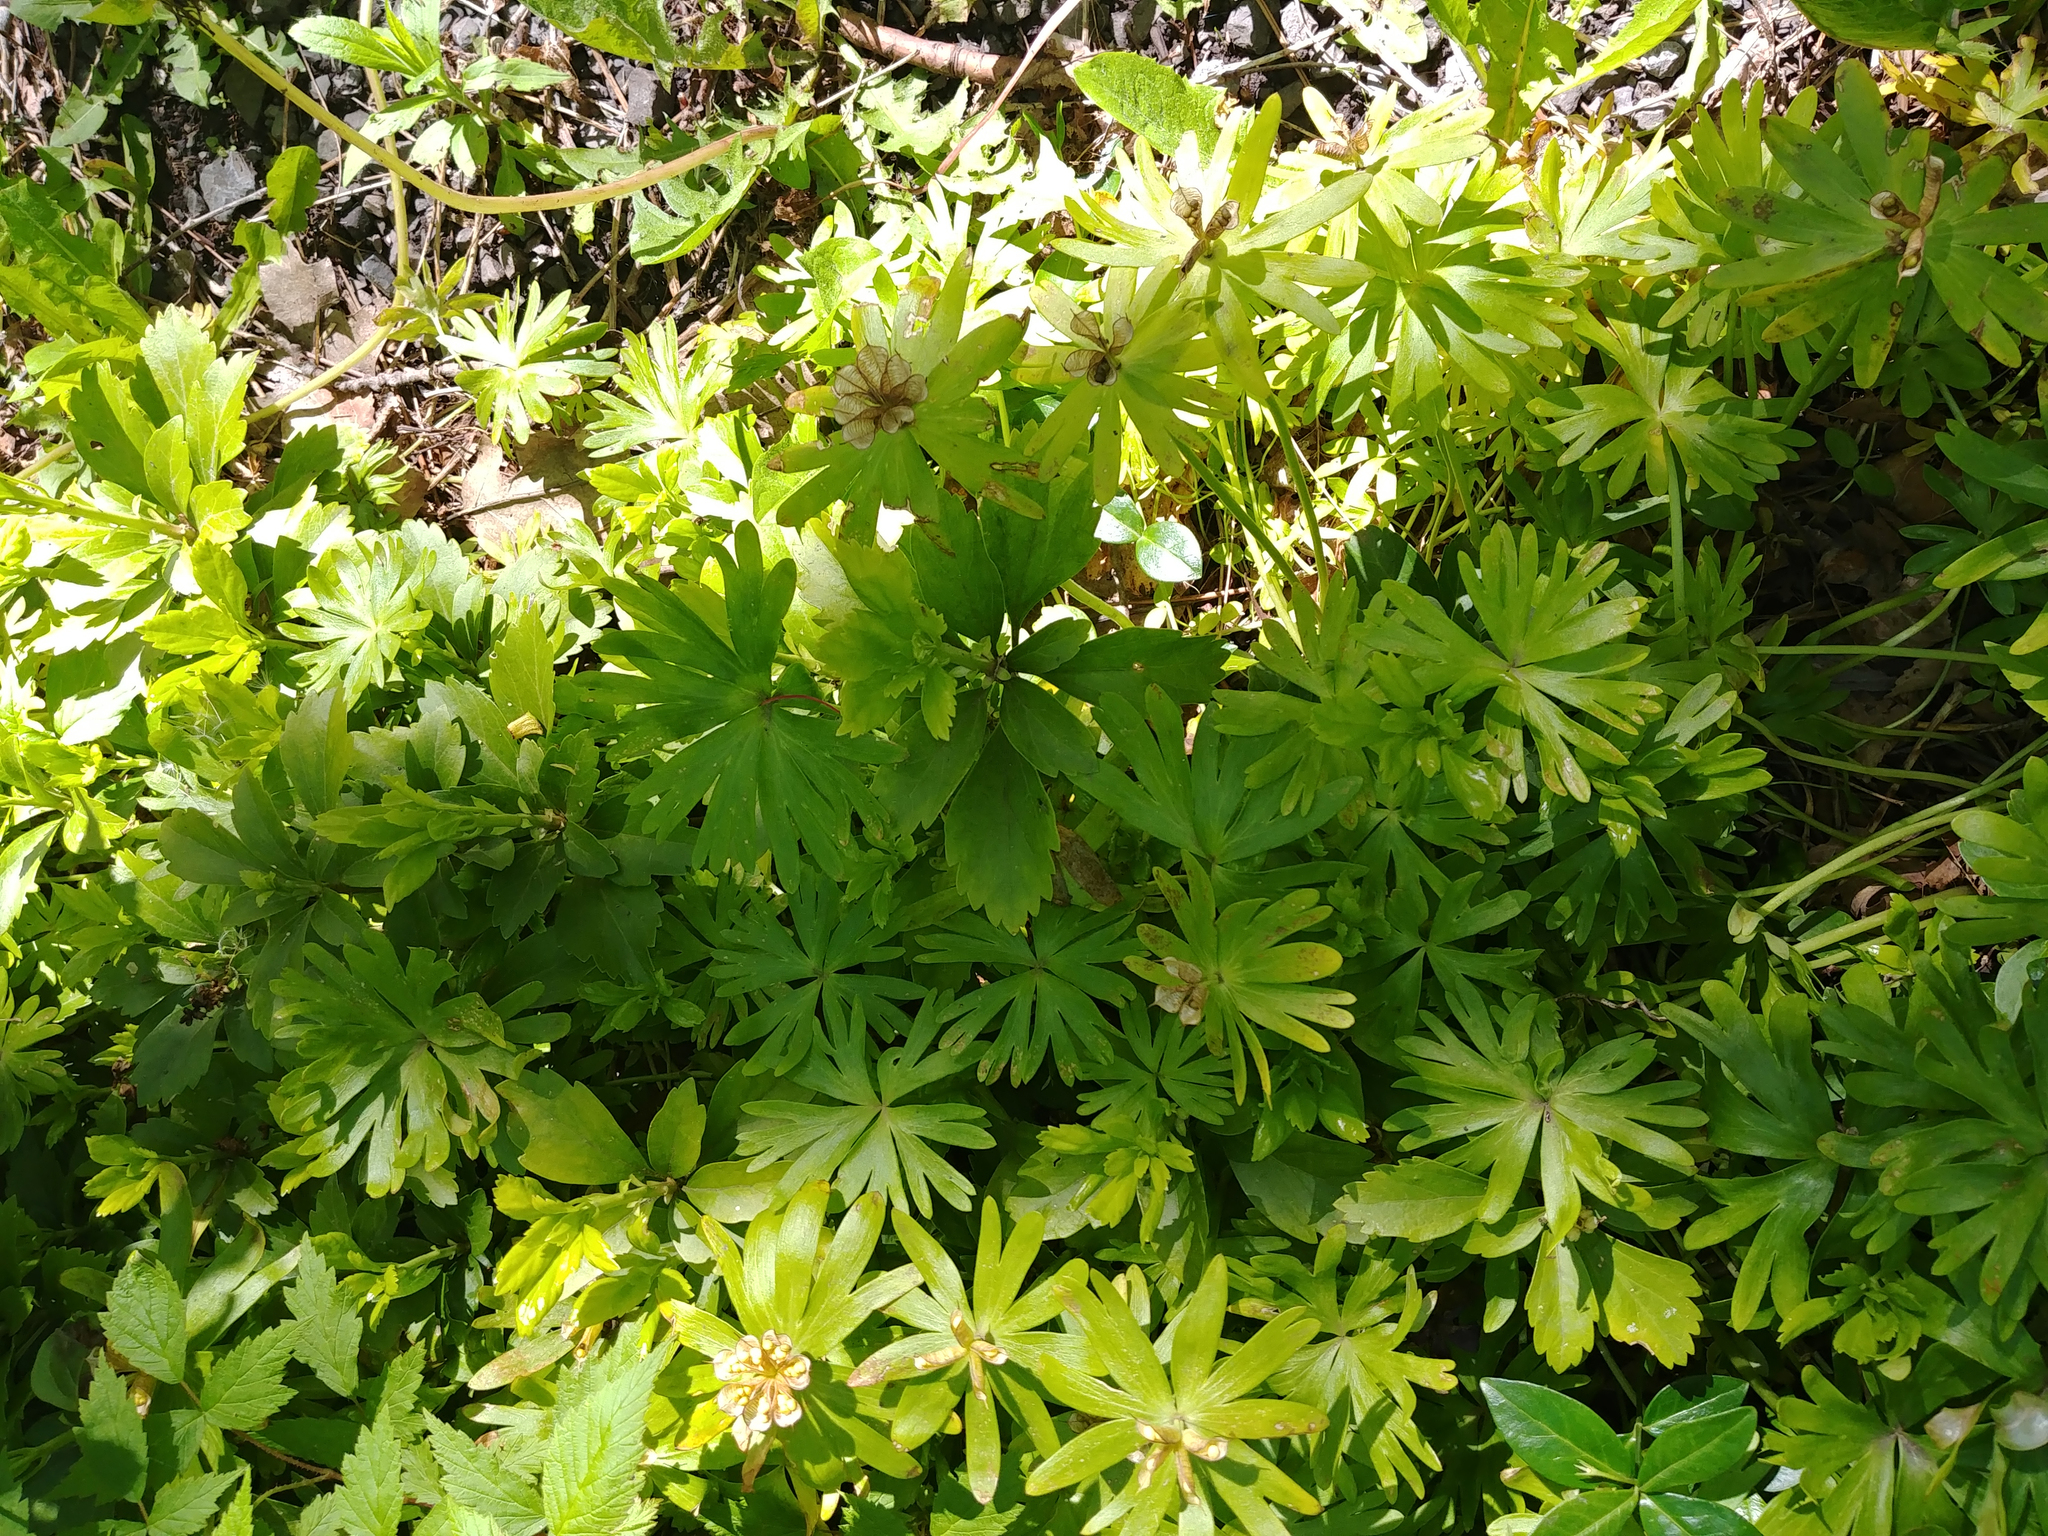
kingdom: Plantae
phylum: Tracheophyta
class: Magnoliopsida
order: Ranunculales
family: Ranunculaceae
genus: Eranthis
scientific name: Eranthis hyemalis
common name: Winter aconite
